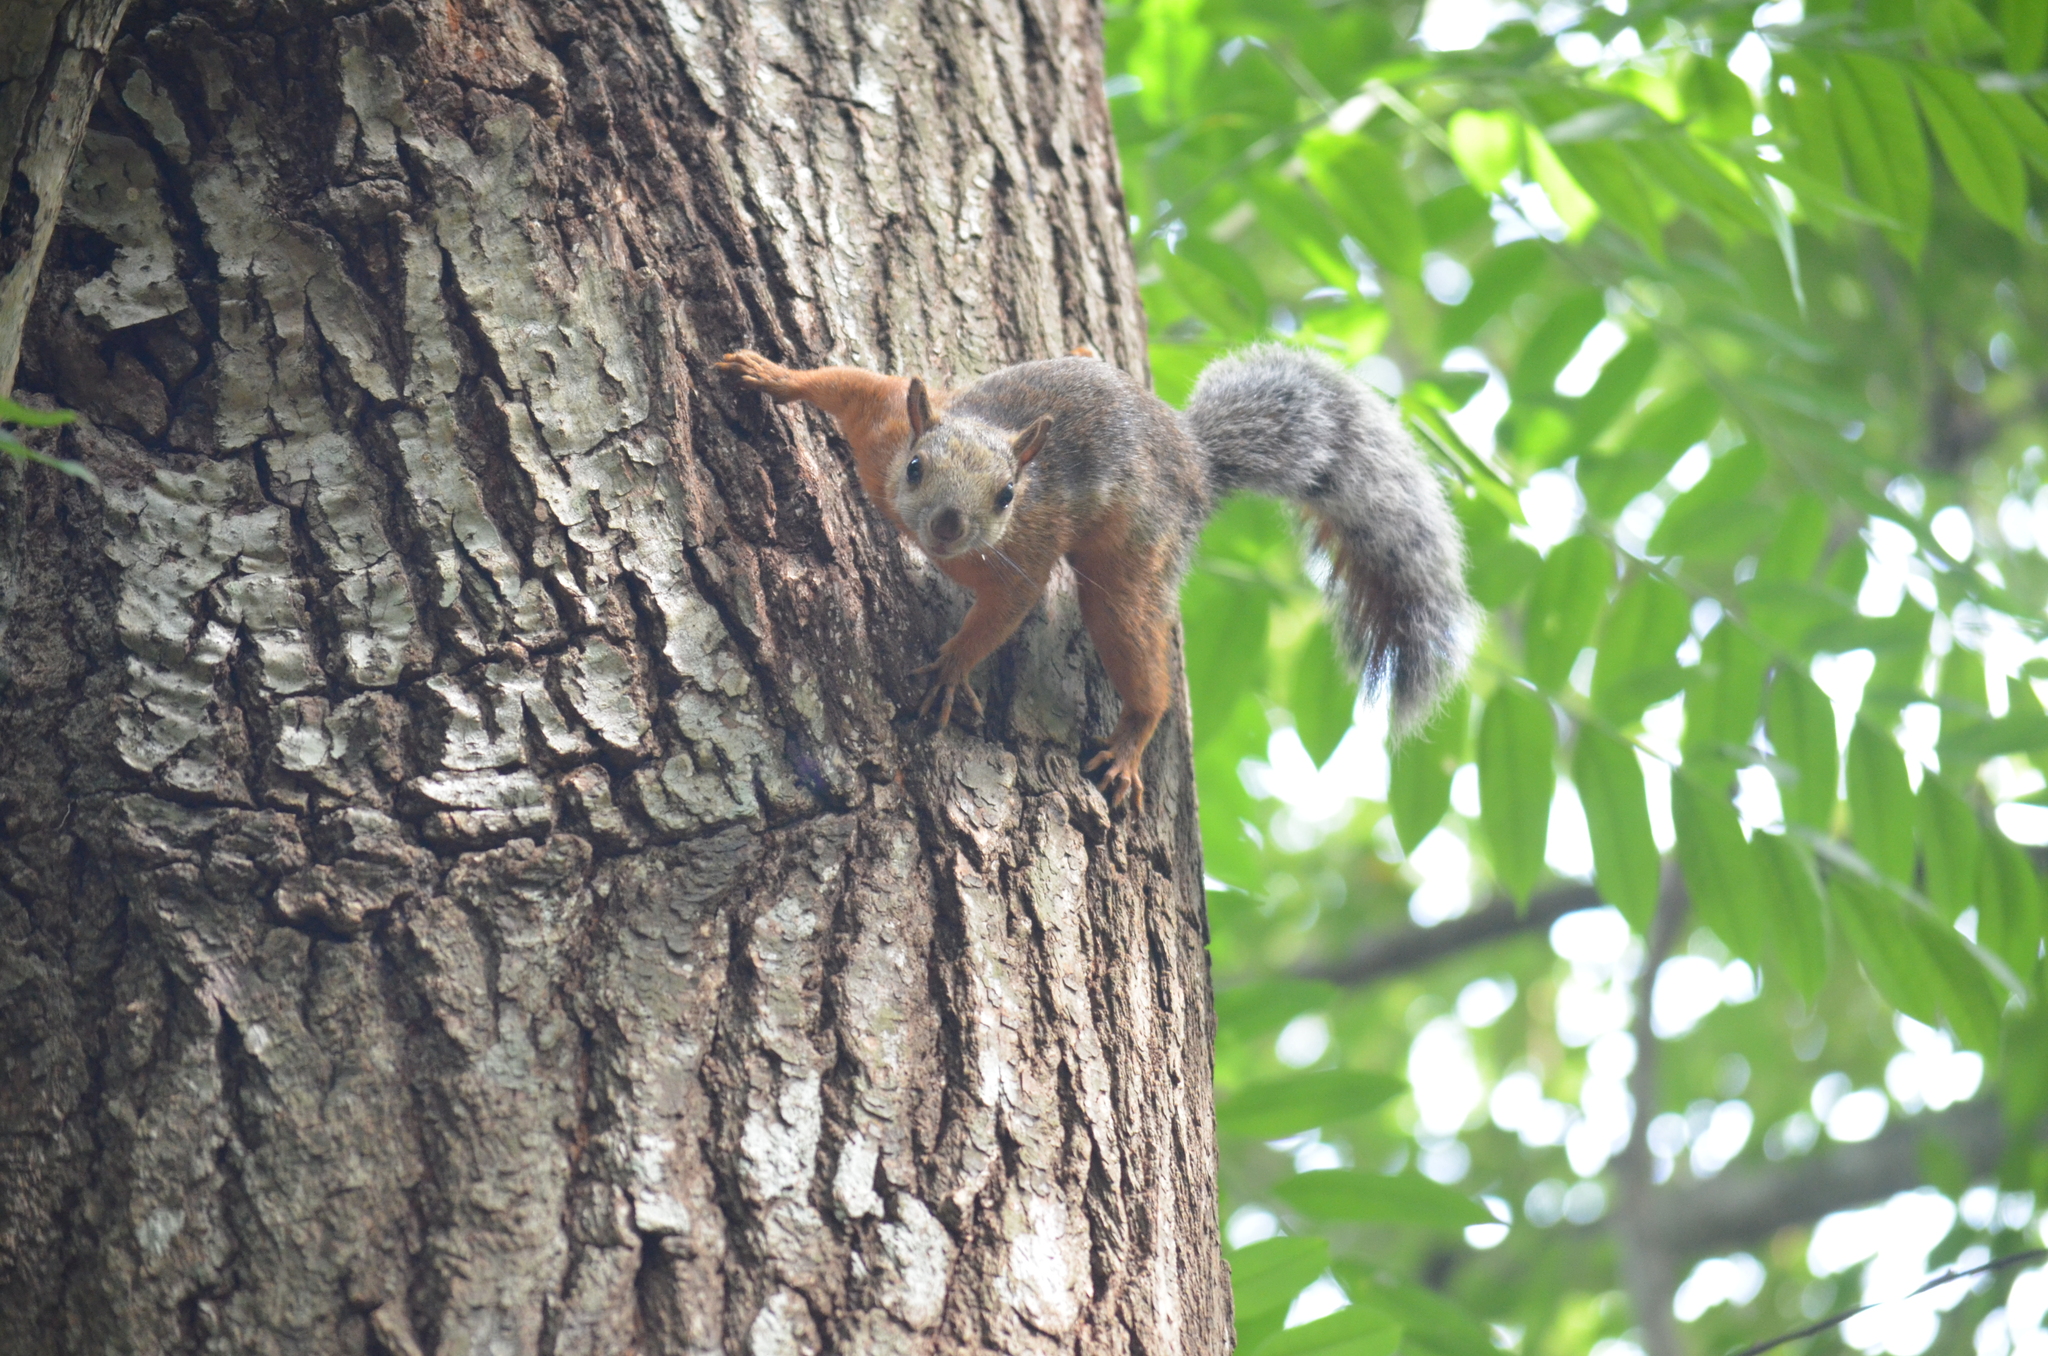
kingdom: Animalia
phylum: Chordata
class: Mammalia
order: Rodentia
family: Sciuridae
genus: Sciurus
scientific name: Sciurus variegatoides
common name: Variegated squirrel
